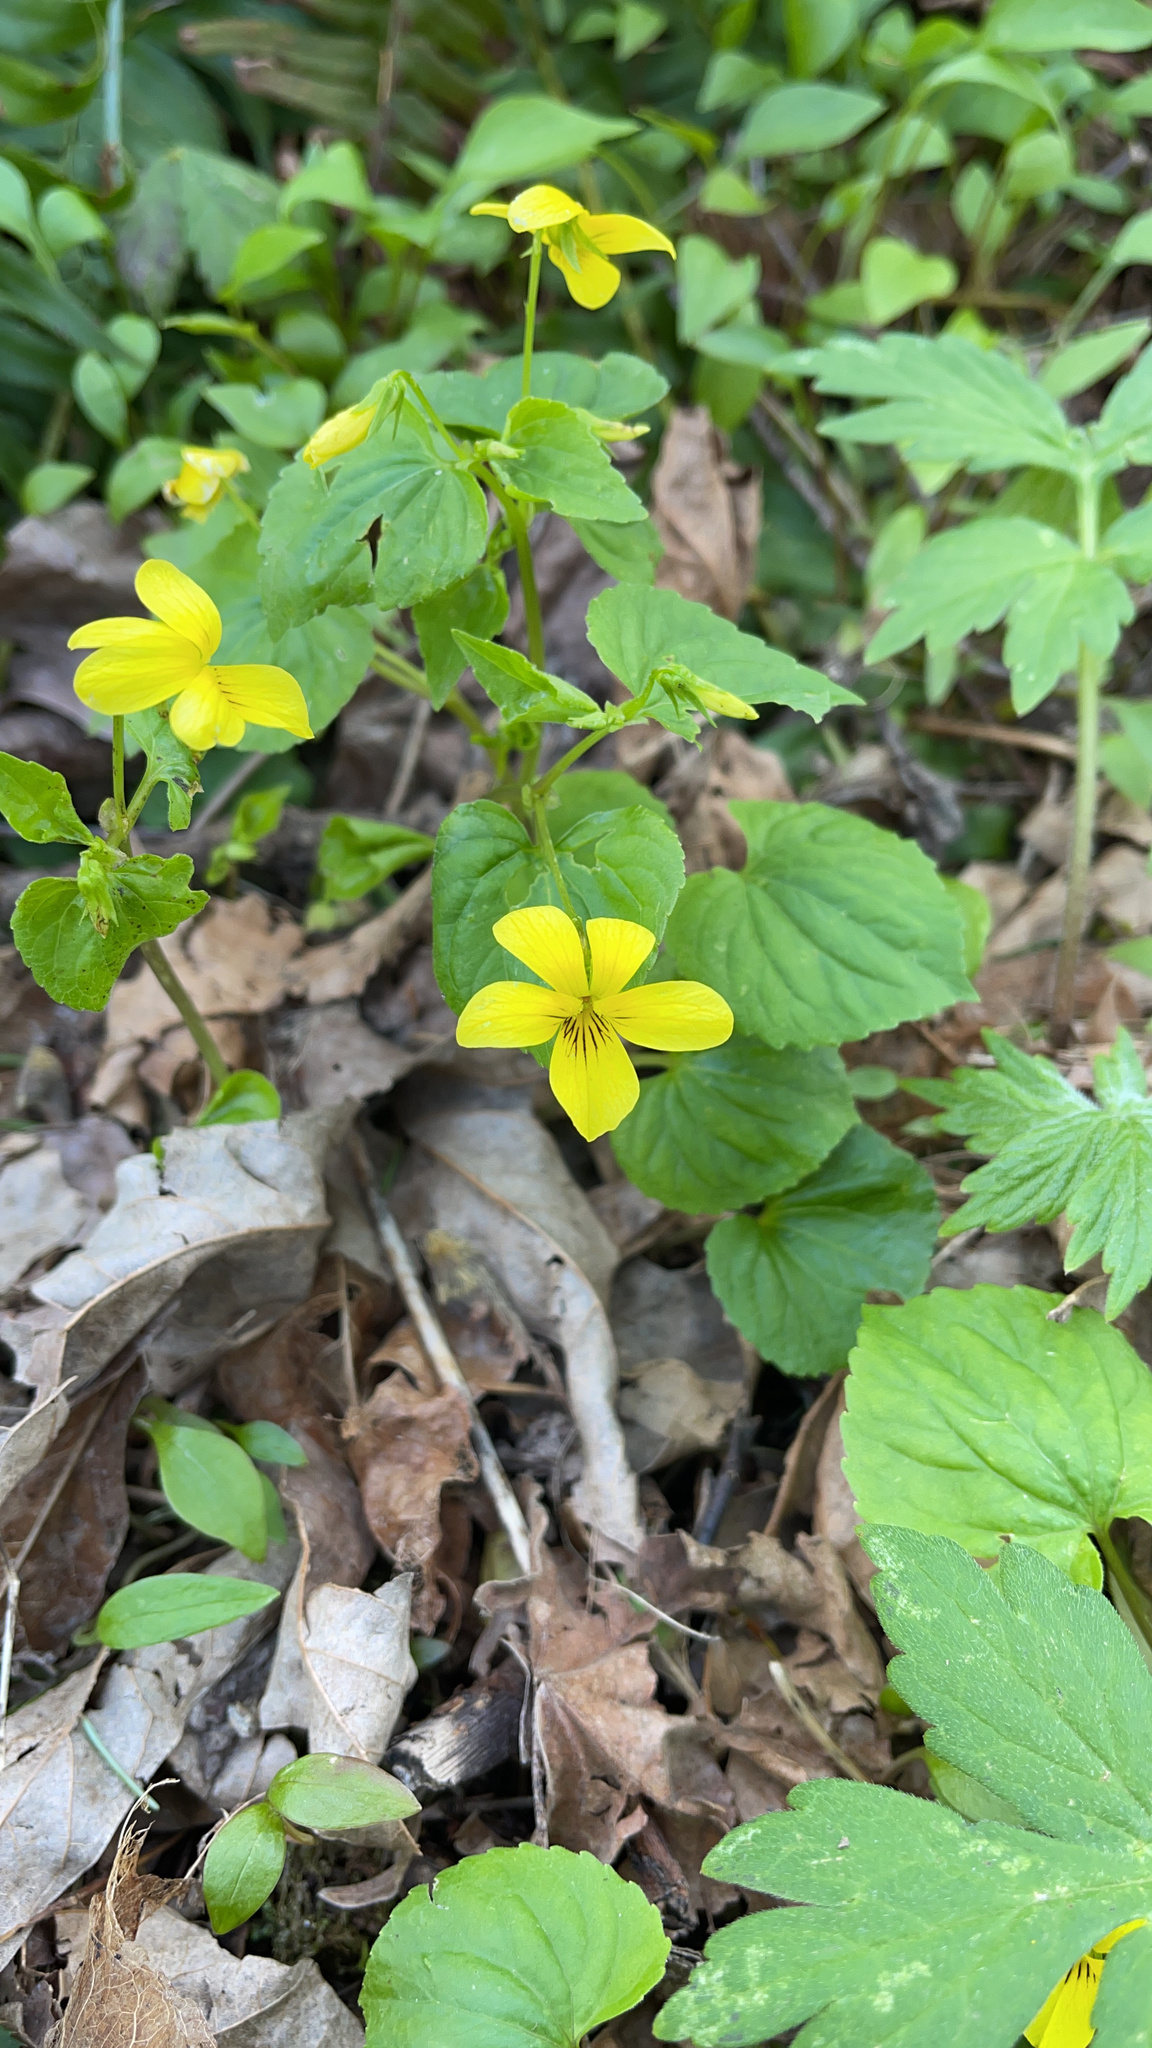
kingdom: Plantae
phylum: Tracheophyta
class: Magnoliopsida
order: Malpighiales
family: Violaceae
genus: Viola
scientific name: Viola glabella
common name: Stream violet
